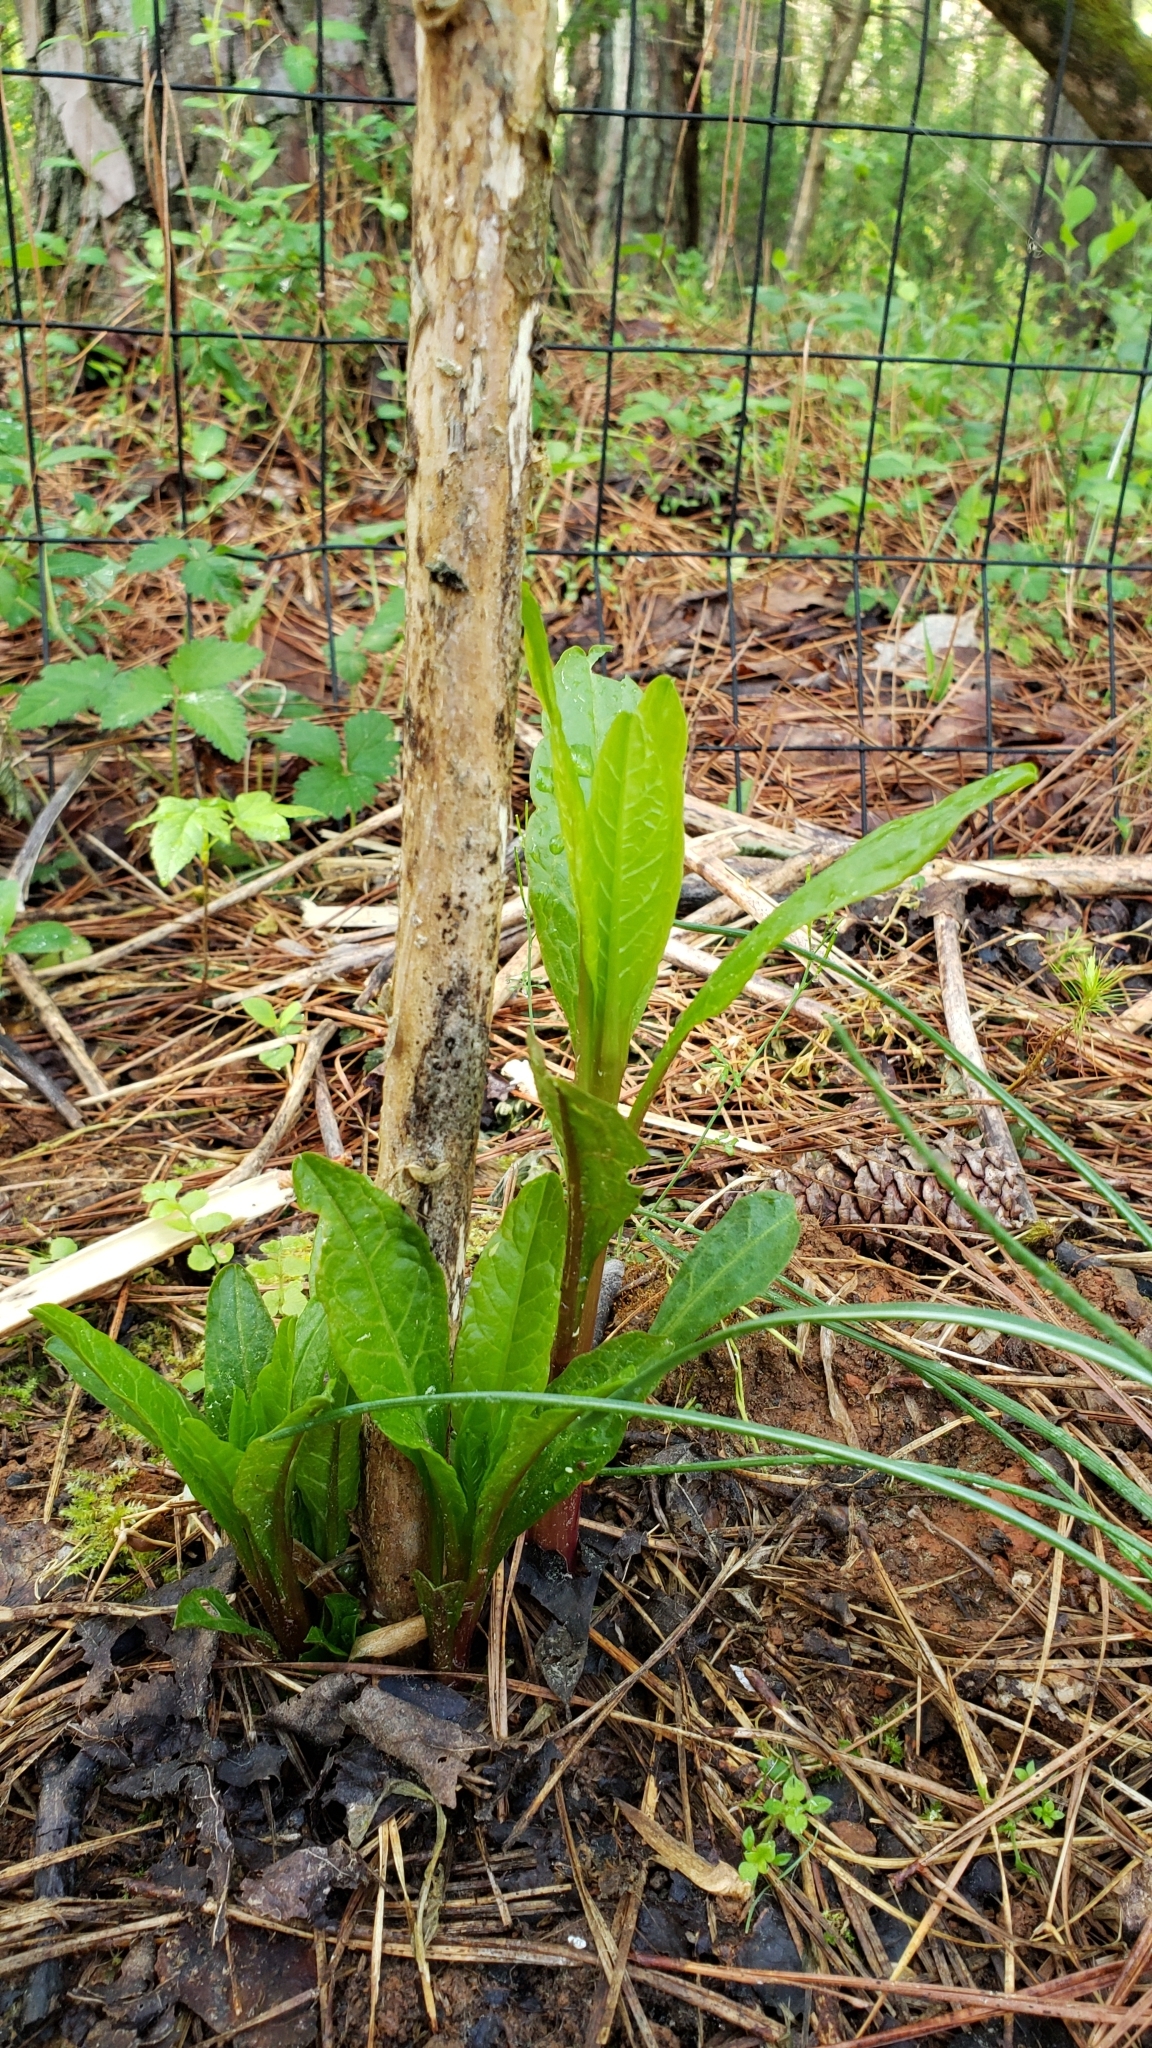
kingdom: Plantae
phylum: Tracheophyta
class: Magnoliopsida
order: Caryophyllales
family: Phytolaccaceae
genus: Phytolacca
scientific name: Phytolacca americana
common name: American pokeweed
